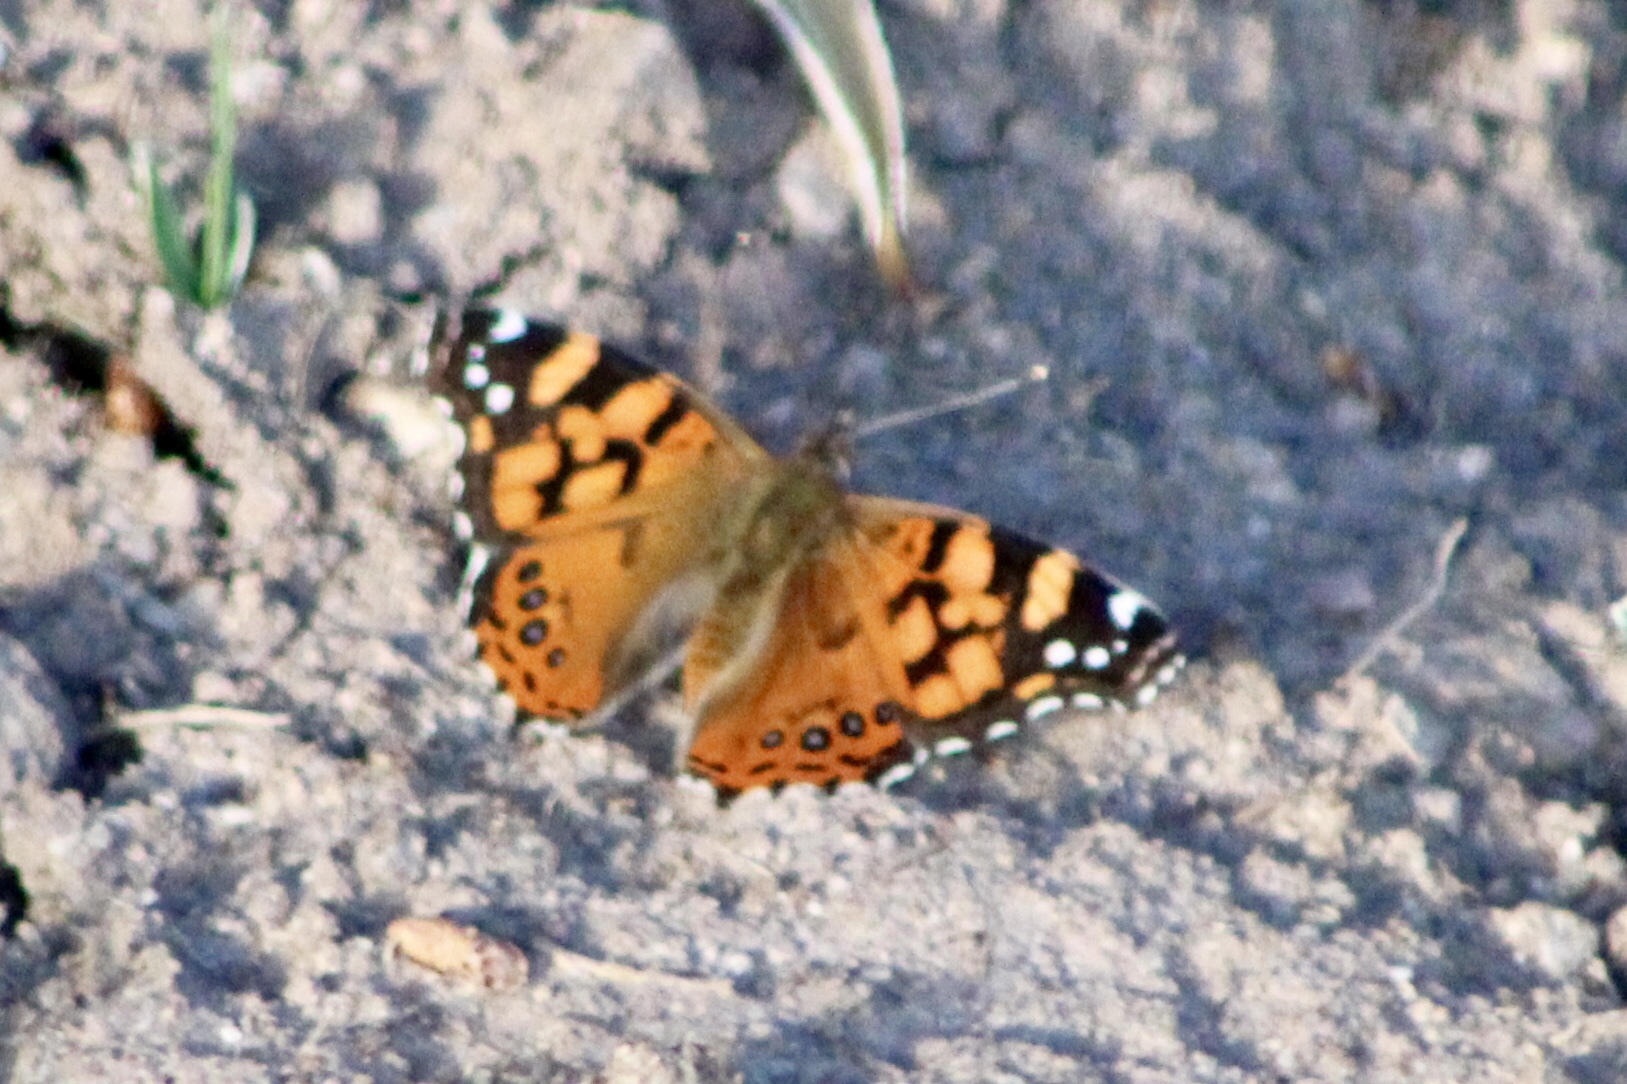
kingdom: Animalia
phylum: Arthropoda
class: Insecta
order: Lepidoptera
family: Nymphalidae
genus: Vanessa
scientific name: Vanessa annabella
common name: West coast lady
